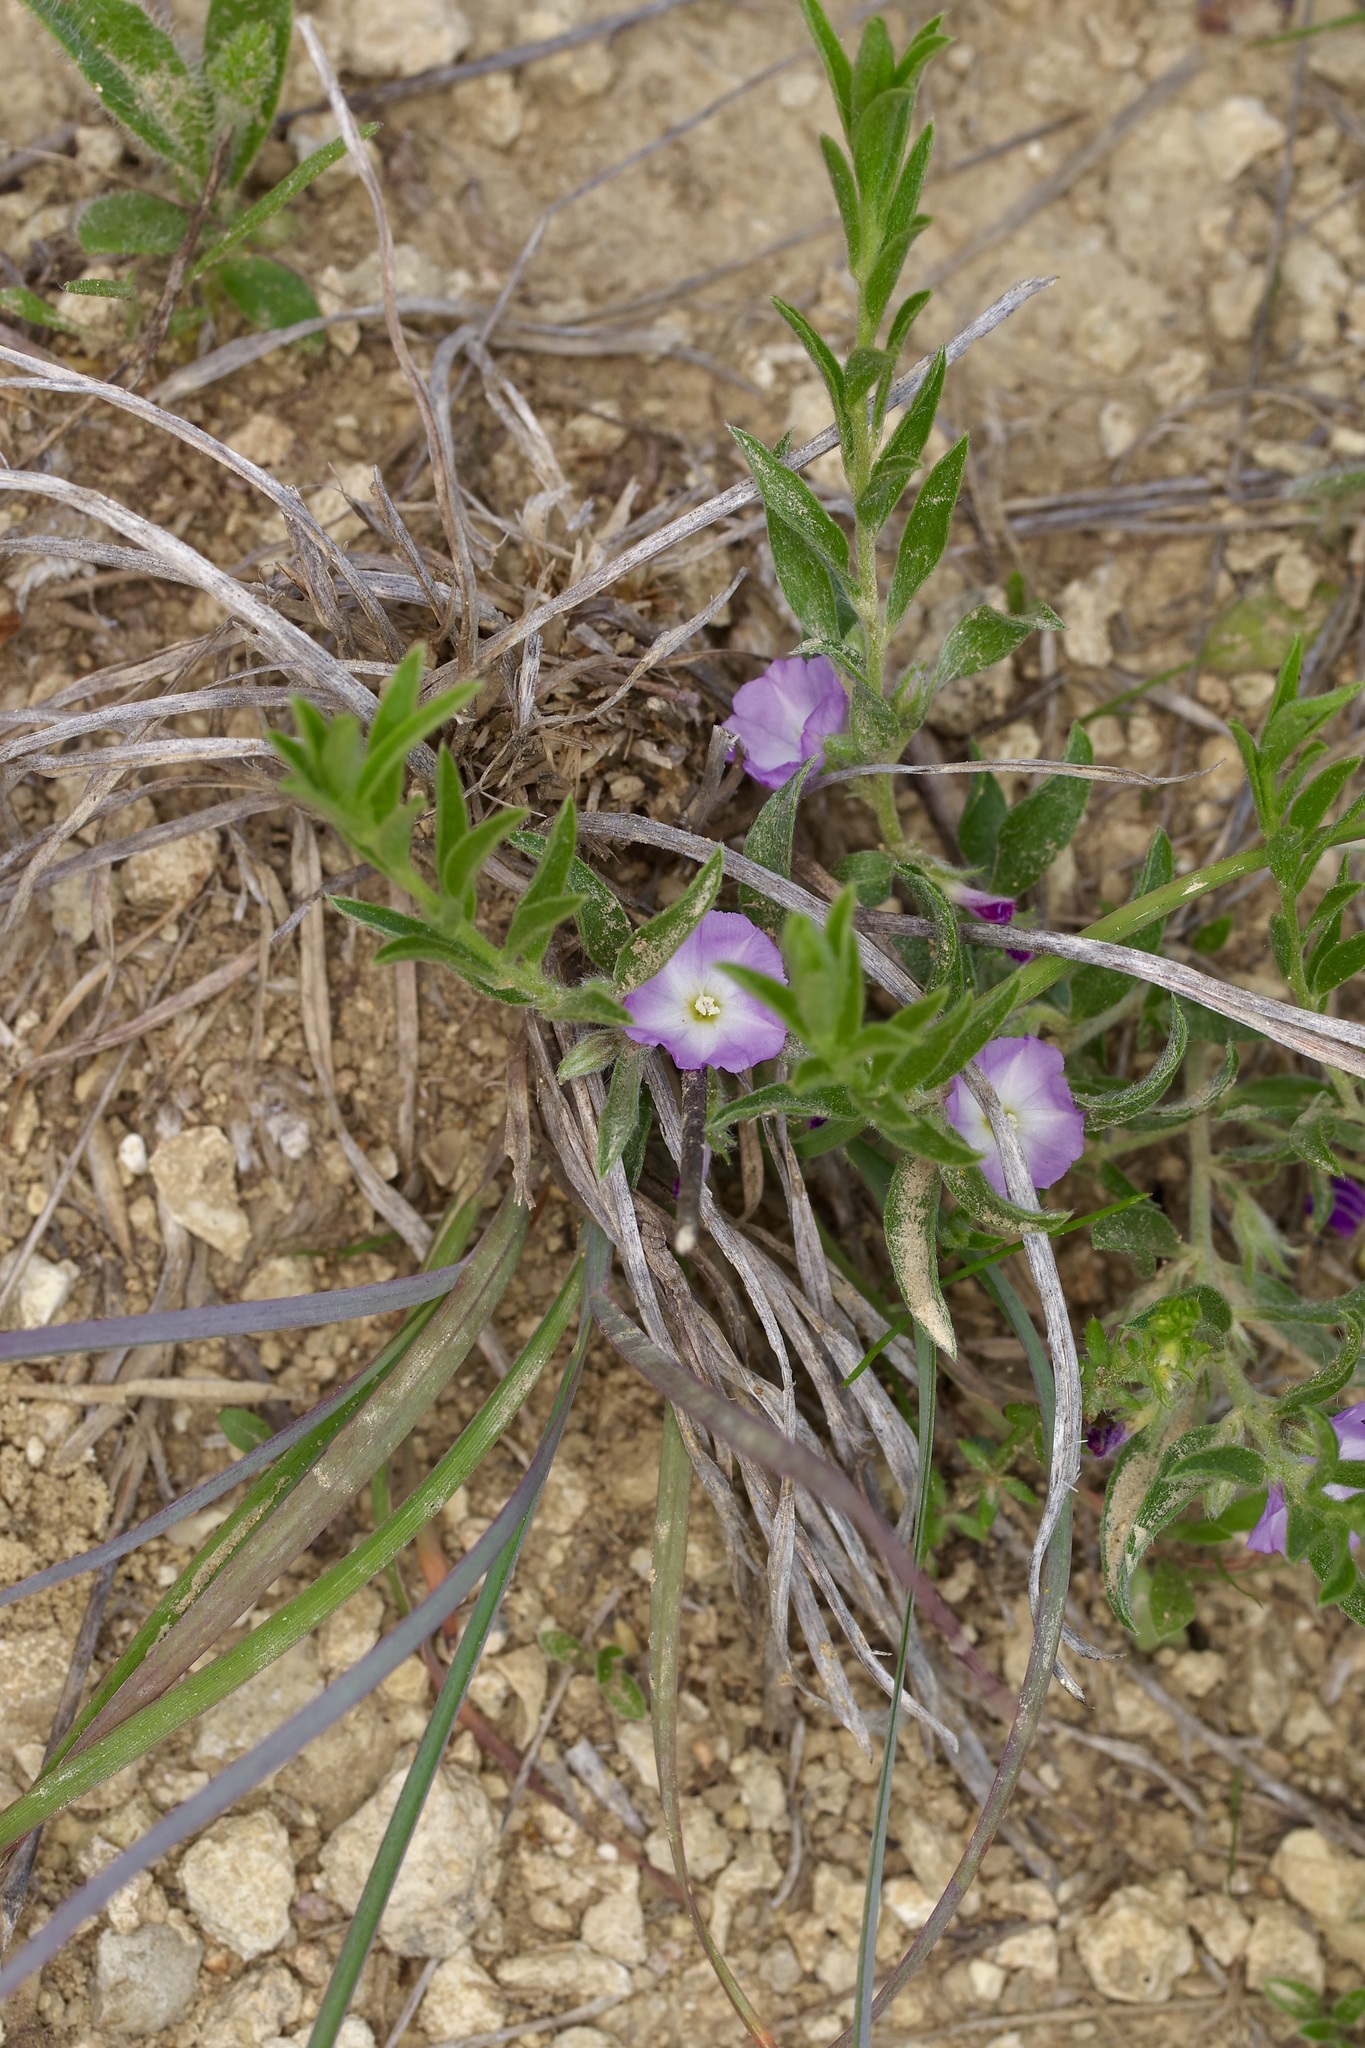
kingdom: Plantae
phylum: Tracheophyta
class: Magnoliopsida
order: Solanales
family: Convolvulaceae
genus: Evolvulus
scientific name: Evolvulus nuttallianus
